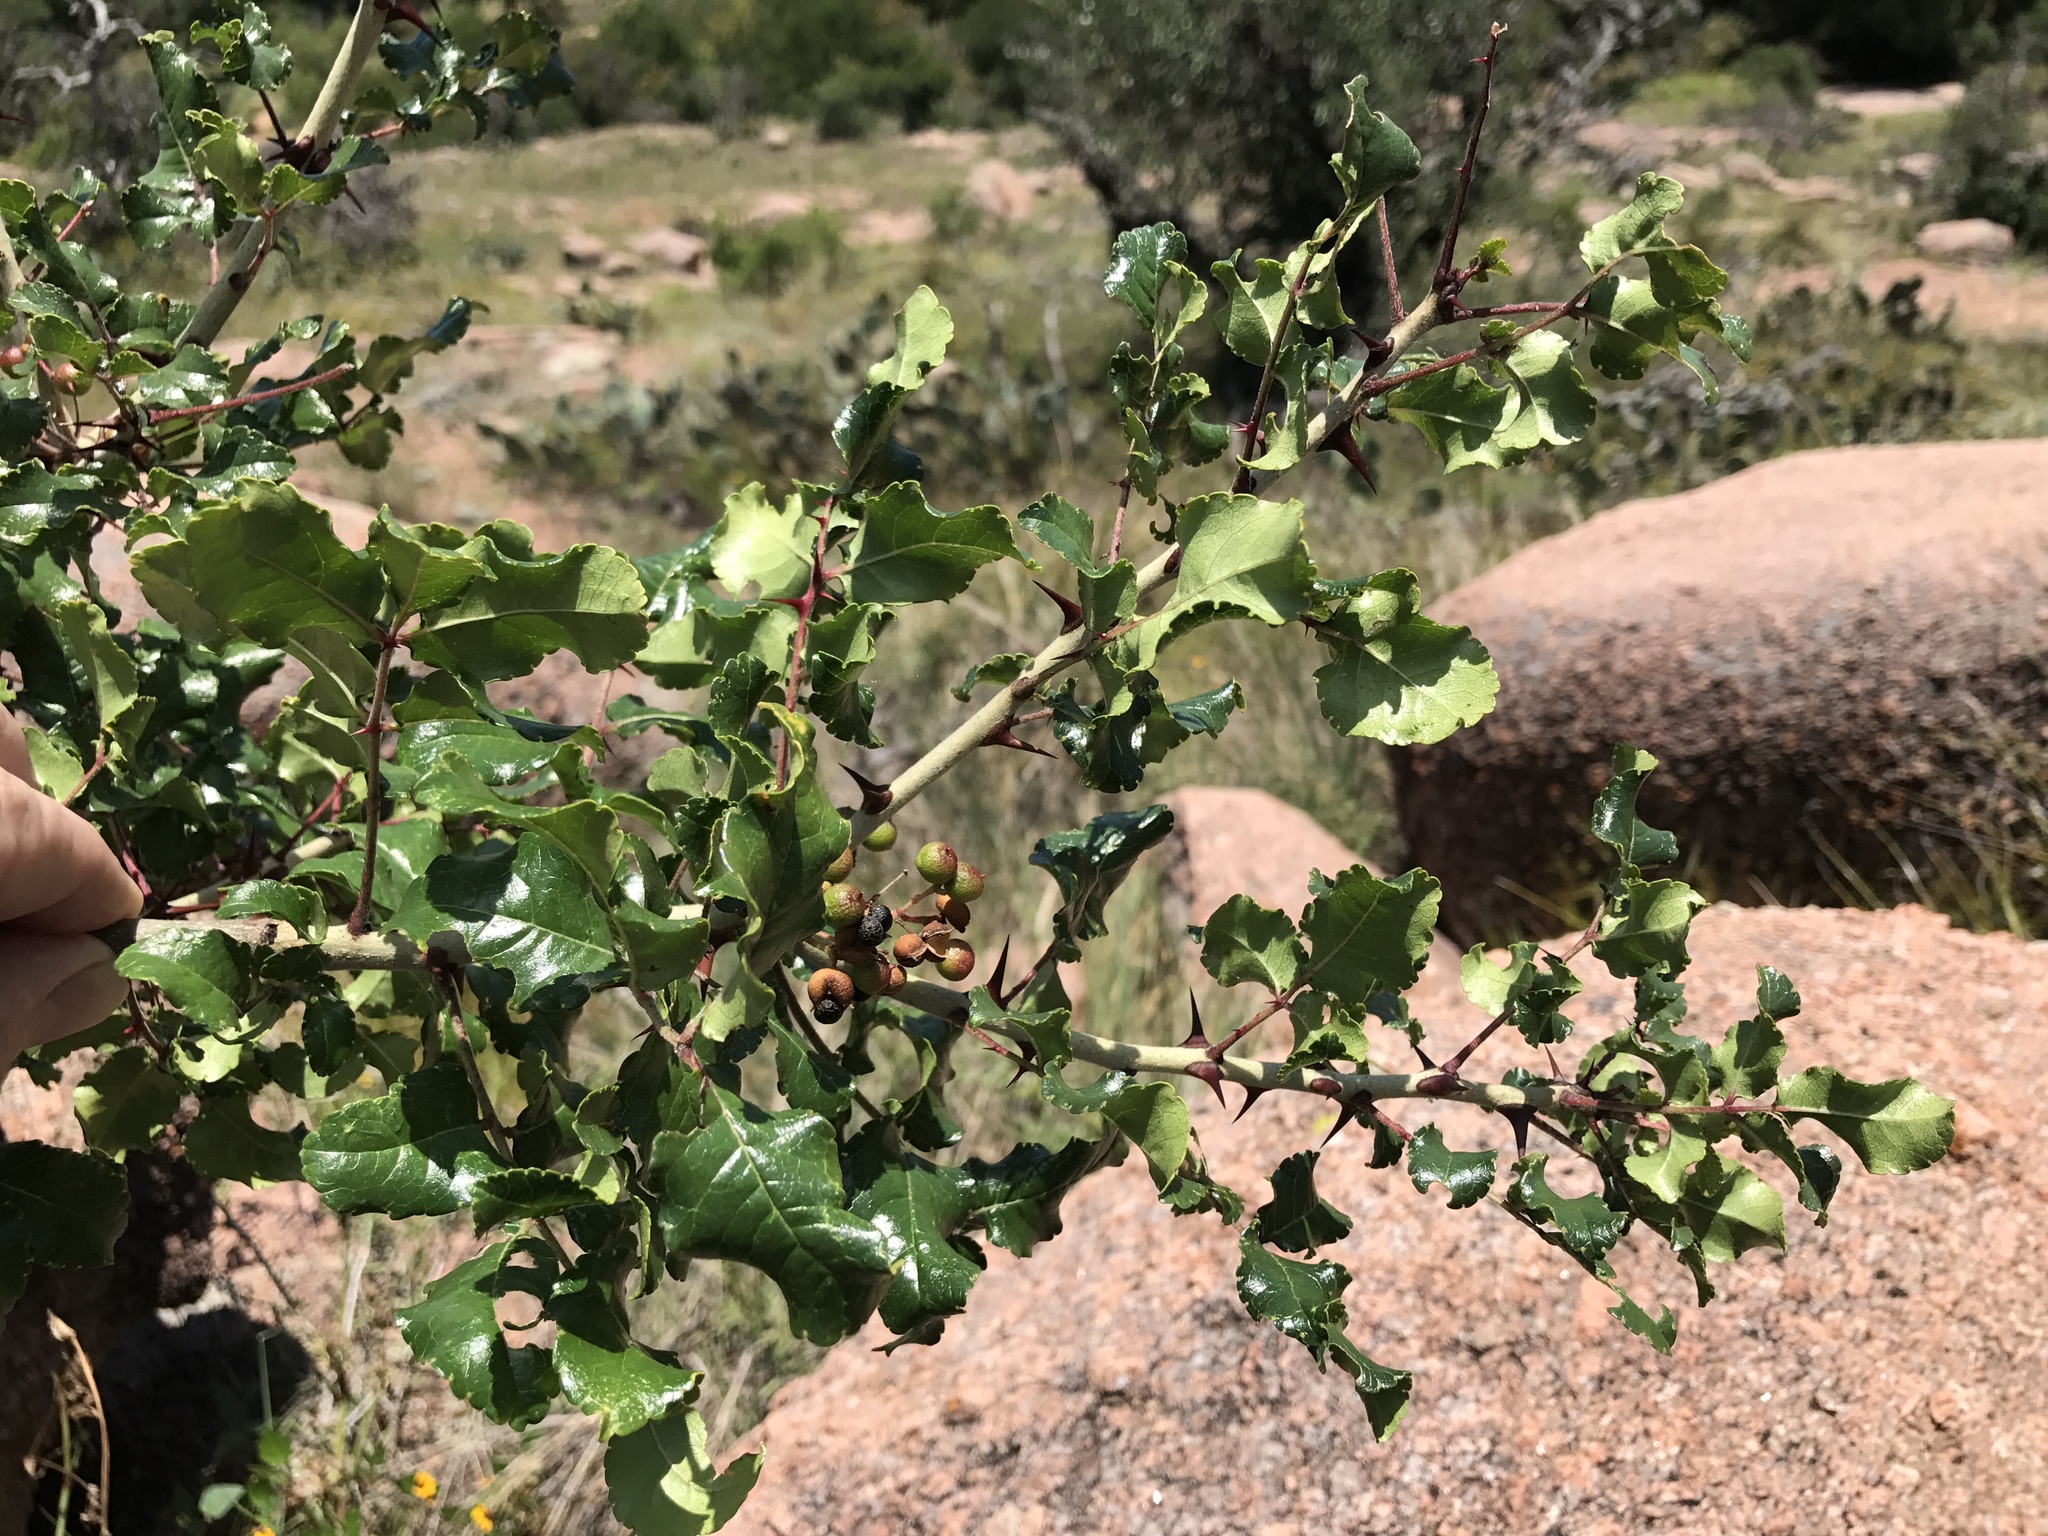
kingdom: Plantae
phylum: Tracheophyta
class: Magnoliopsida
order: Sapindales
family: Rutaceae
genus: Zanthoxylum
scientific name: Zanthoxylum clava-herculis
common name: Hercules'-club
